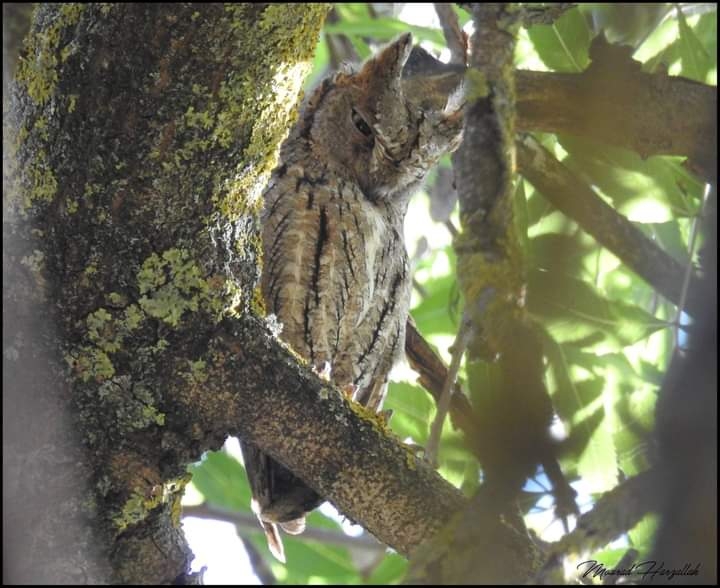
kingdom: Animalia
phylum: Chordata
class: Aves
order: Strigiformes
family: Strigidae
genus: Otus
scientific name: Otus scops
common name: Eurasian scops owl
